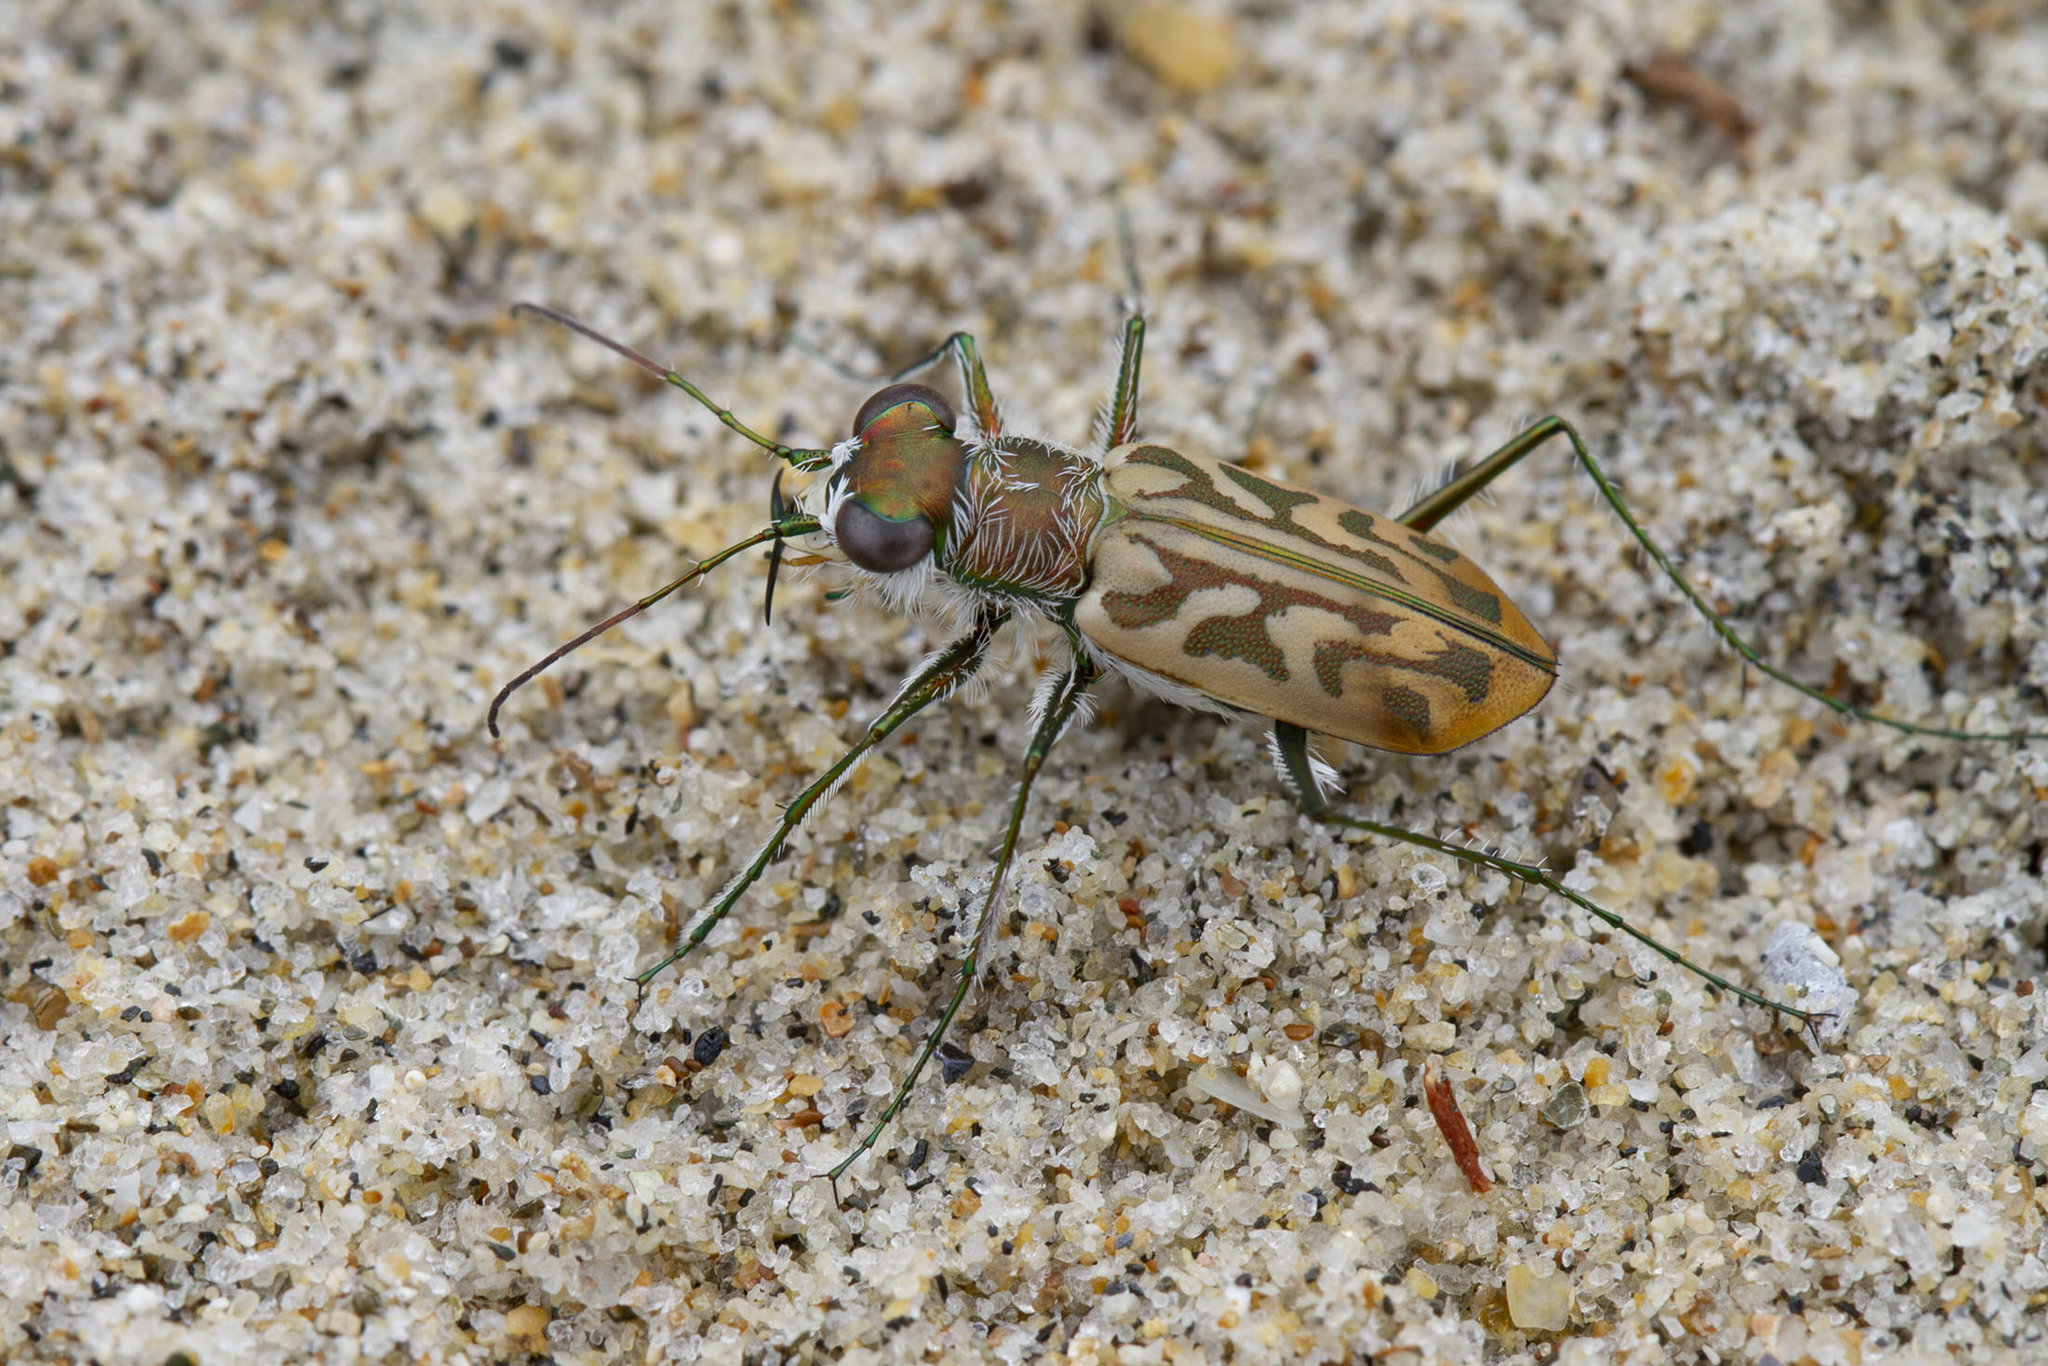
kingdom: Animalia
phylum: Arthropoda
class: Insecta
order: Coleoptera
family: Carabidae
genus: Habrodera
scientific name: Habrodera ovas
